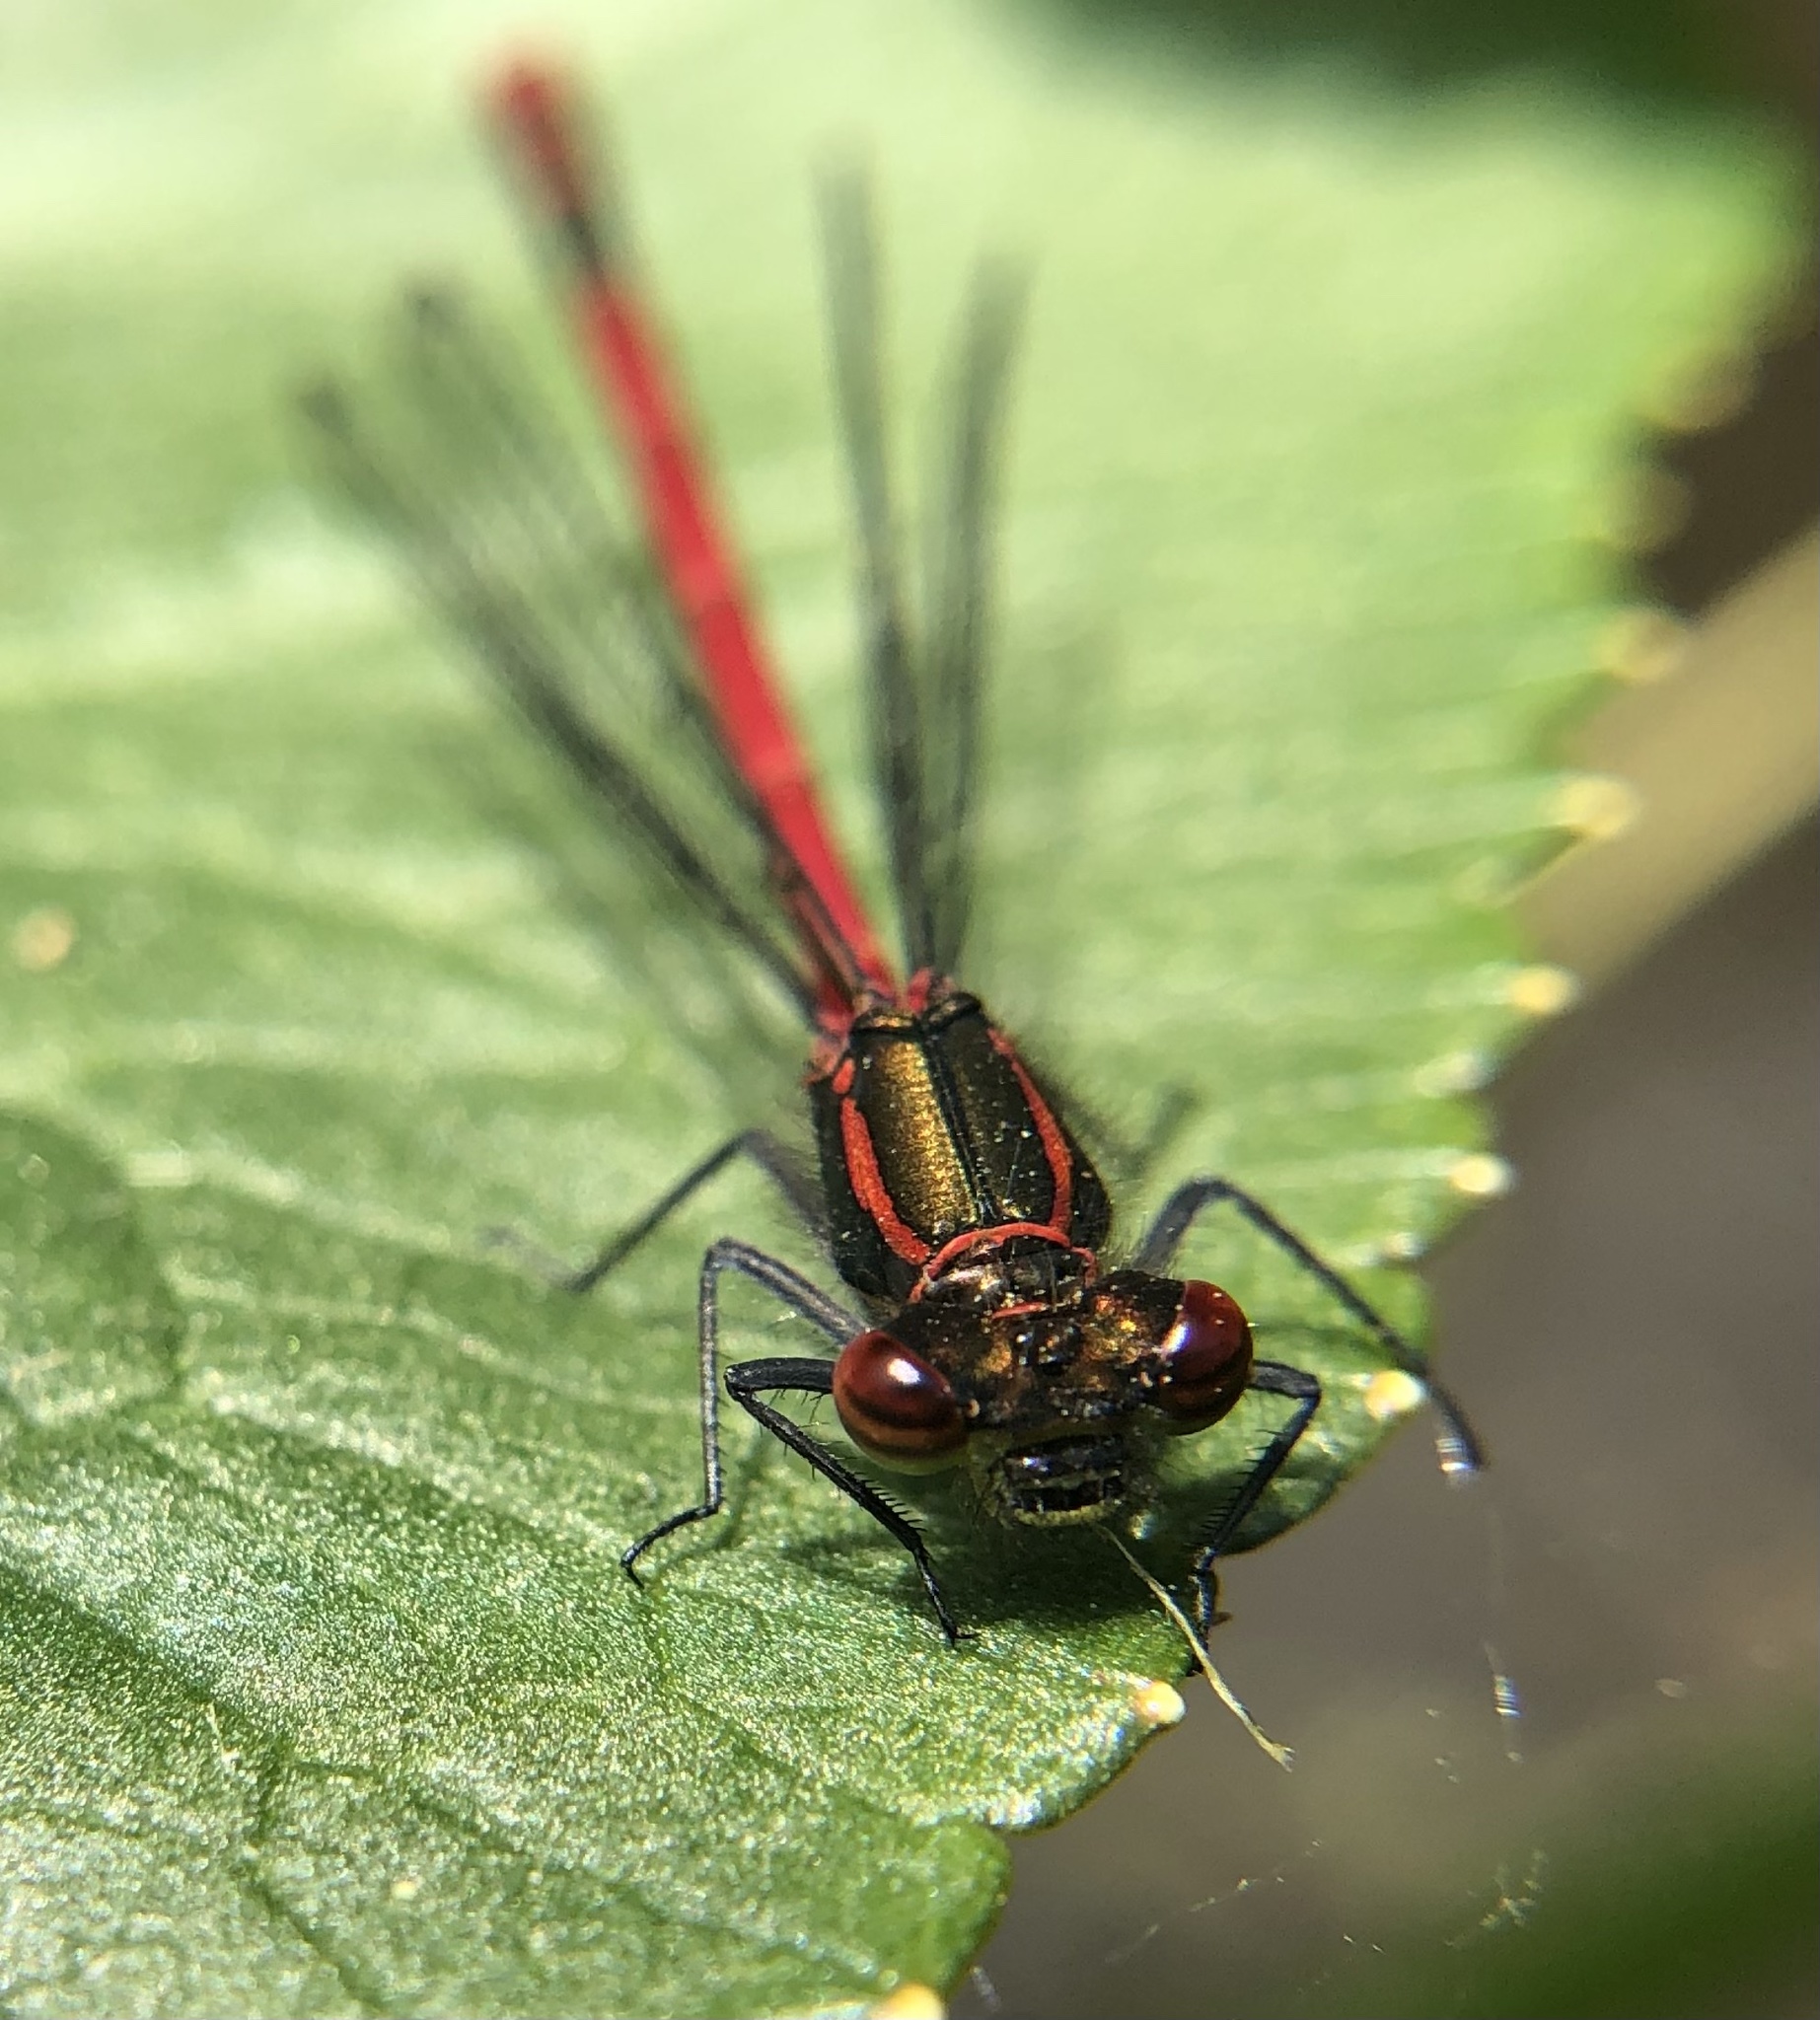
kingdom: Animalia
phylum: Arthropoda
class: Insecta
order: Odonata
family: Coenagrionidae
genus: Pyrrhosoma
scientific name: Pyrrhosoma nymphula
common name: Large red damsel
